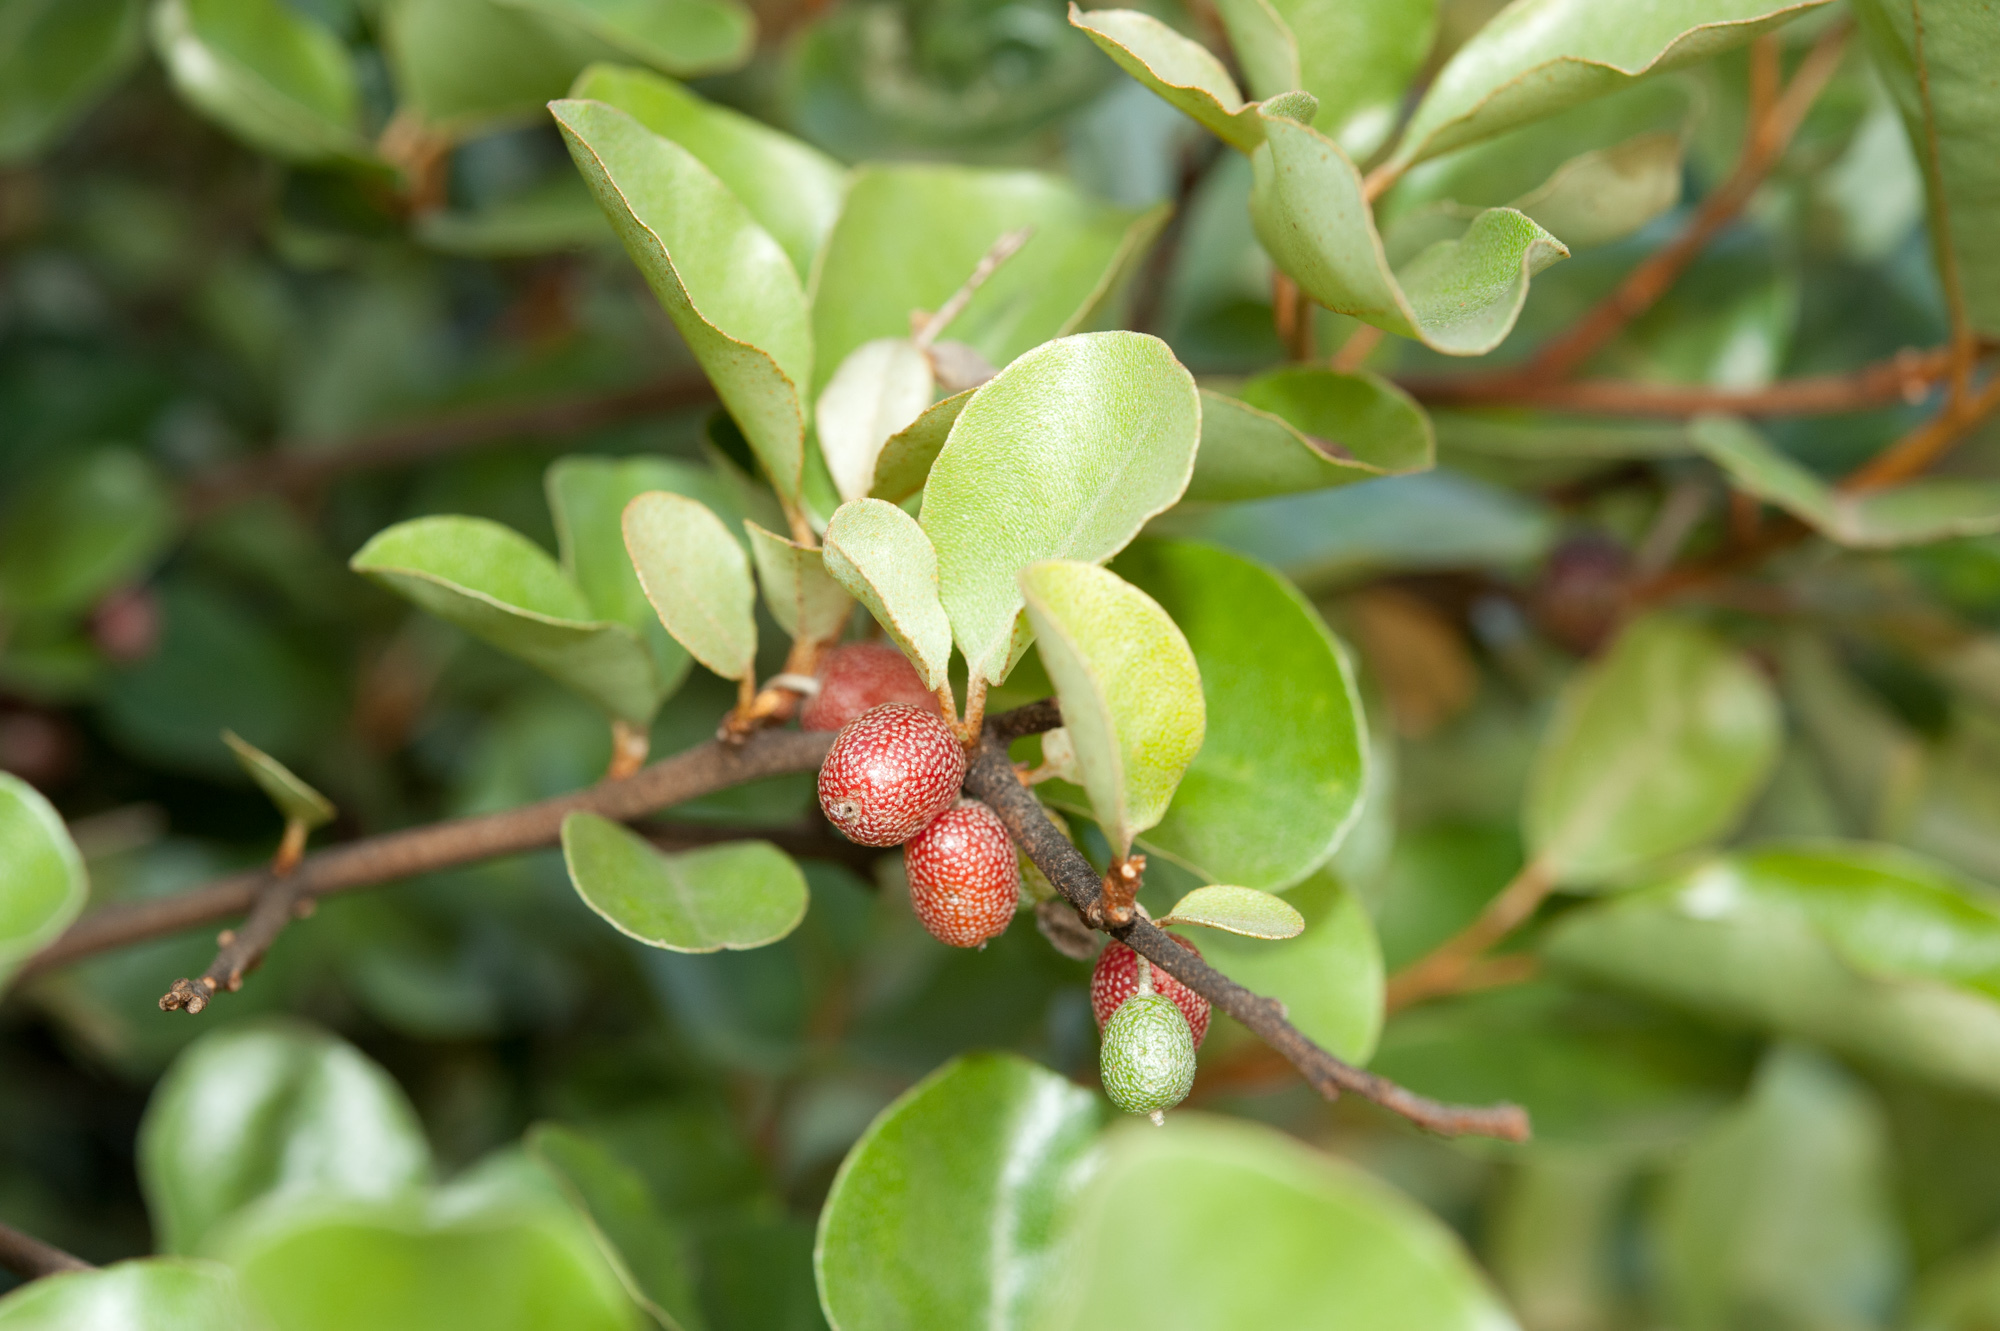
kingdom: Plantae
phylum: Tracheophyta
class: Magnoliopsida
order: Rosales
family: Elaeagnaceae
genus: Elaeagnus
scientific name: Elaeagnus oldhamii
